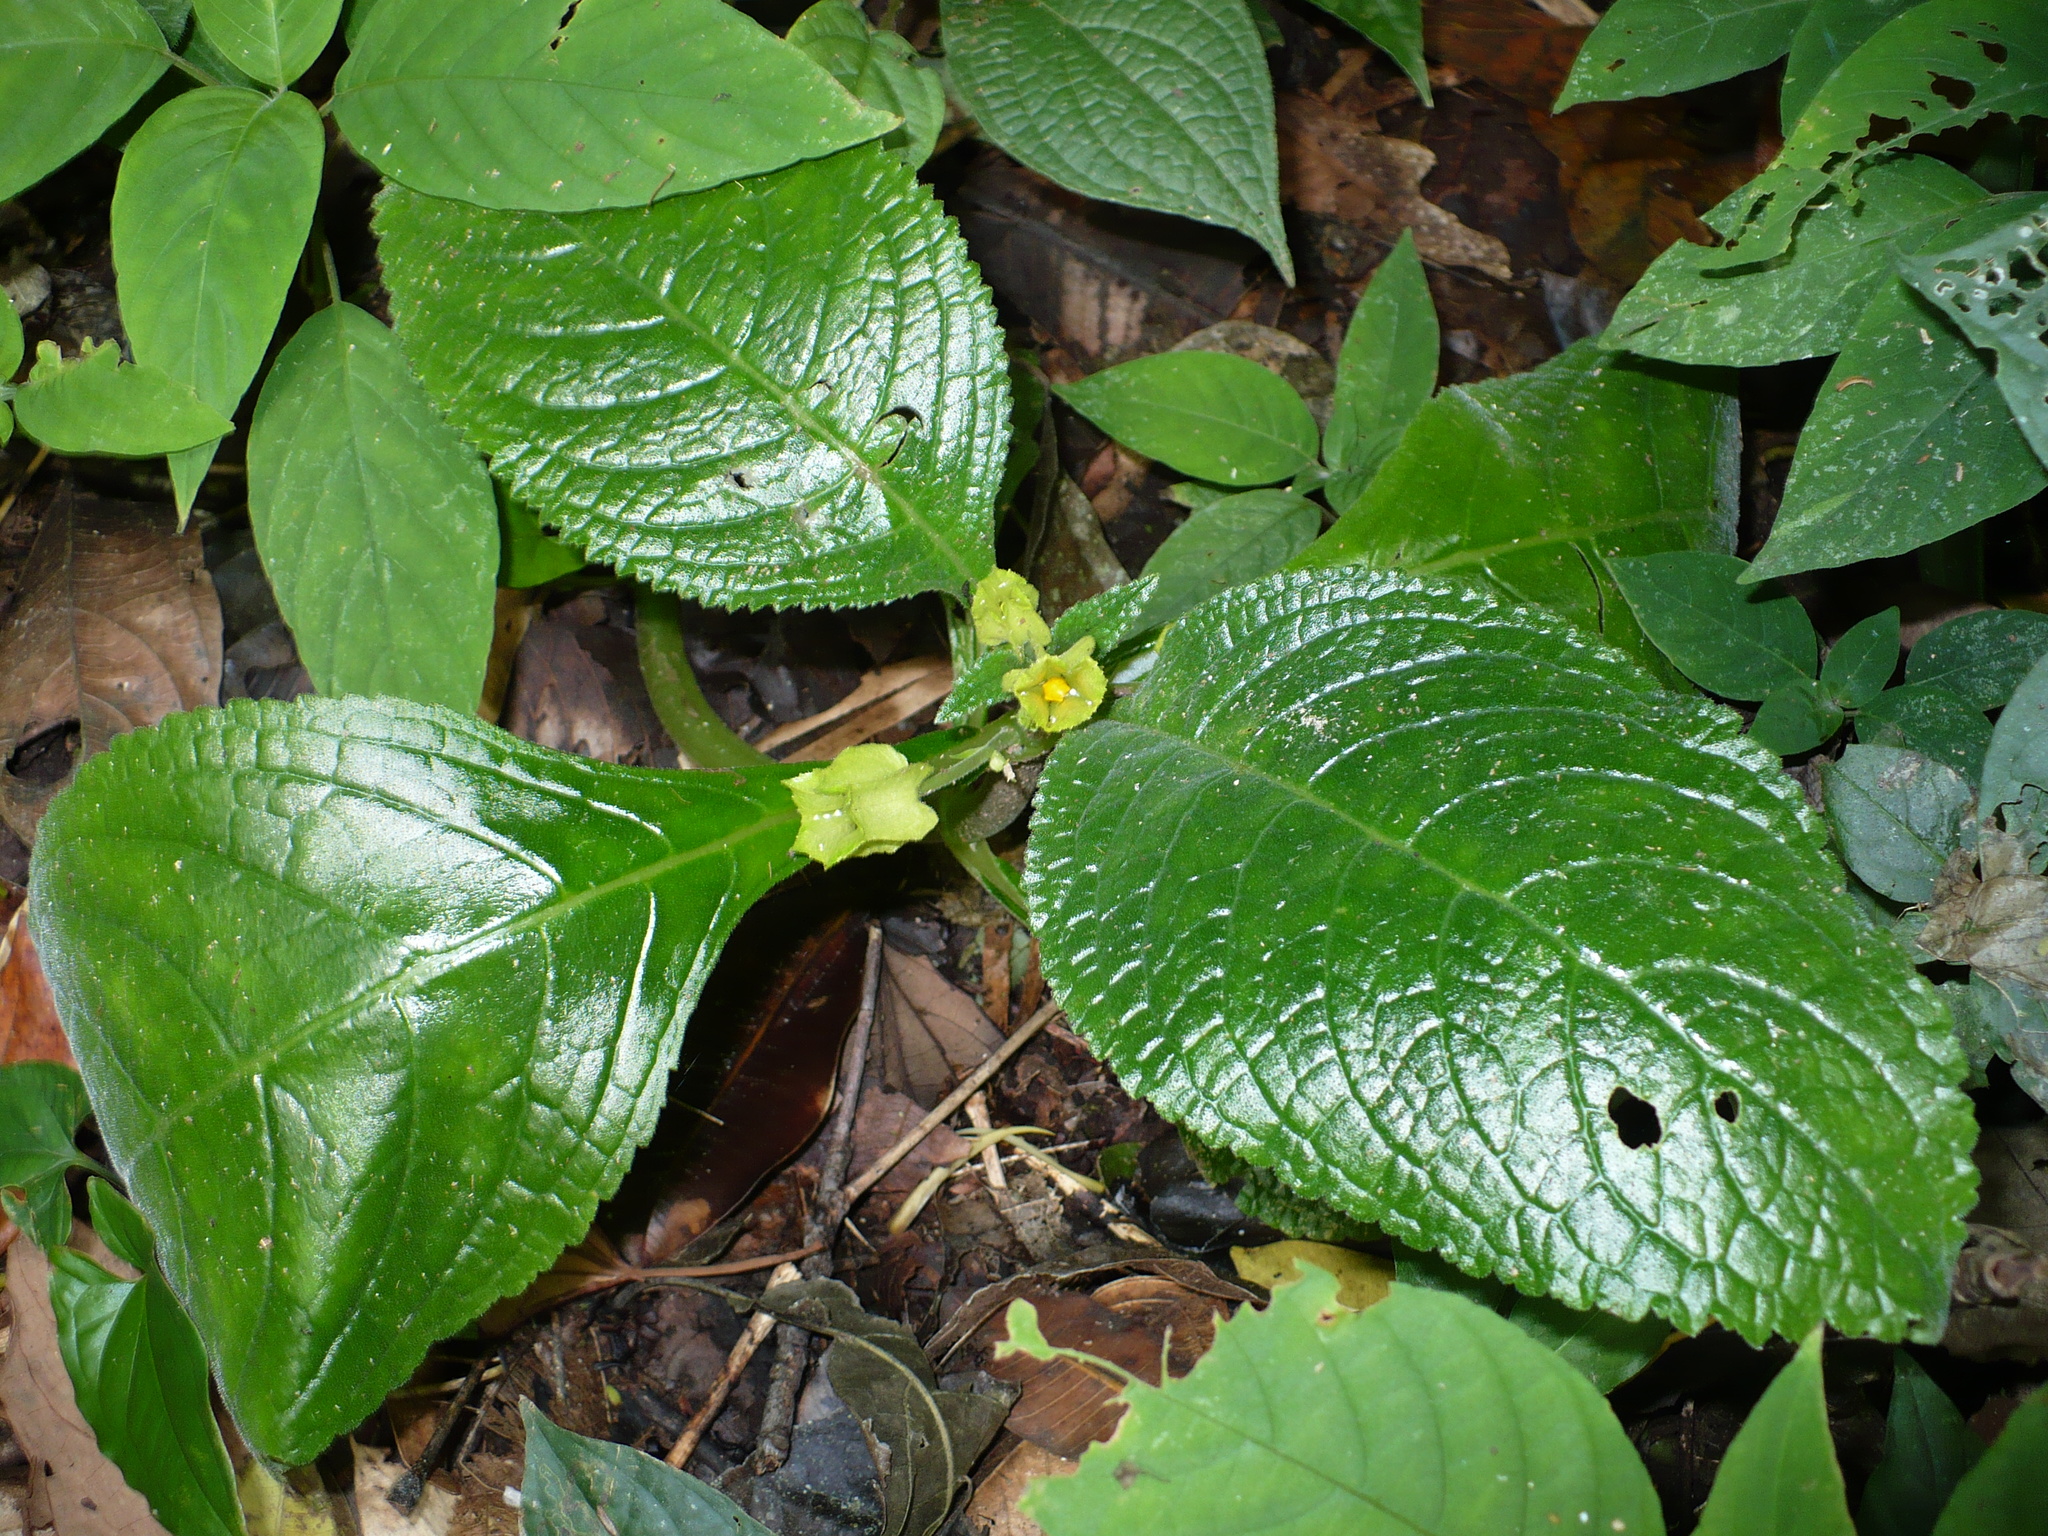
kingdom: Plantae
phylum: Tracheophyta
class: Magnoliopsida
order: Lamiales
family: Gesneriaceae
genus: Chrysothemis
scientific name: Chrysothemis friedrichsthaliana
